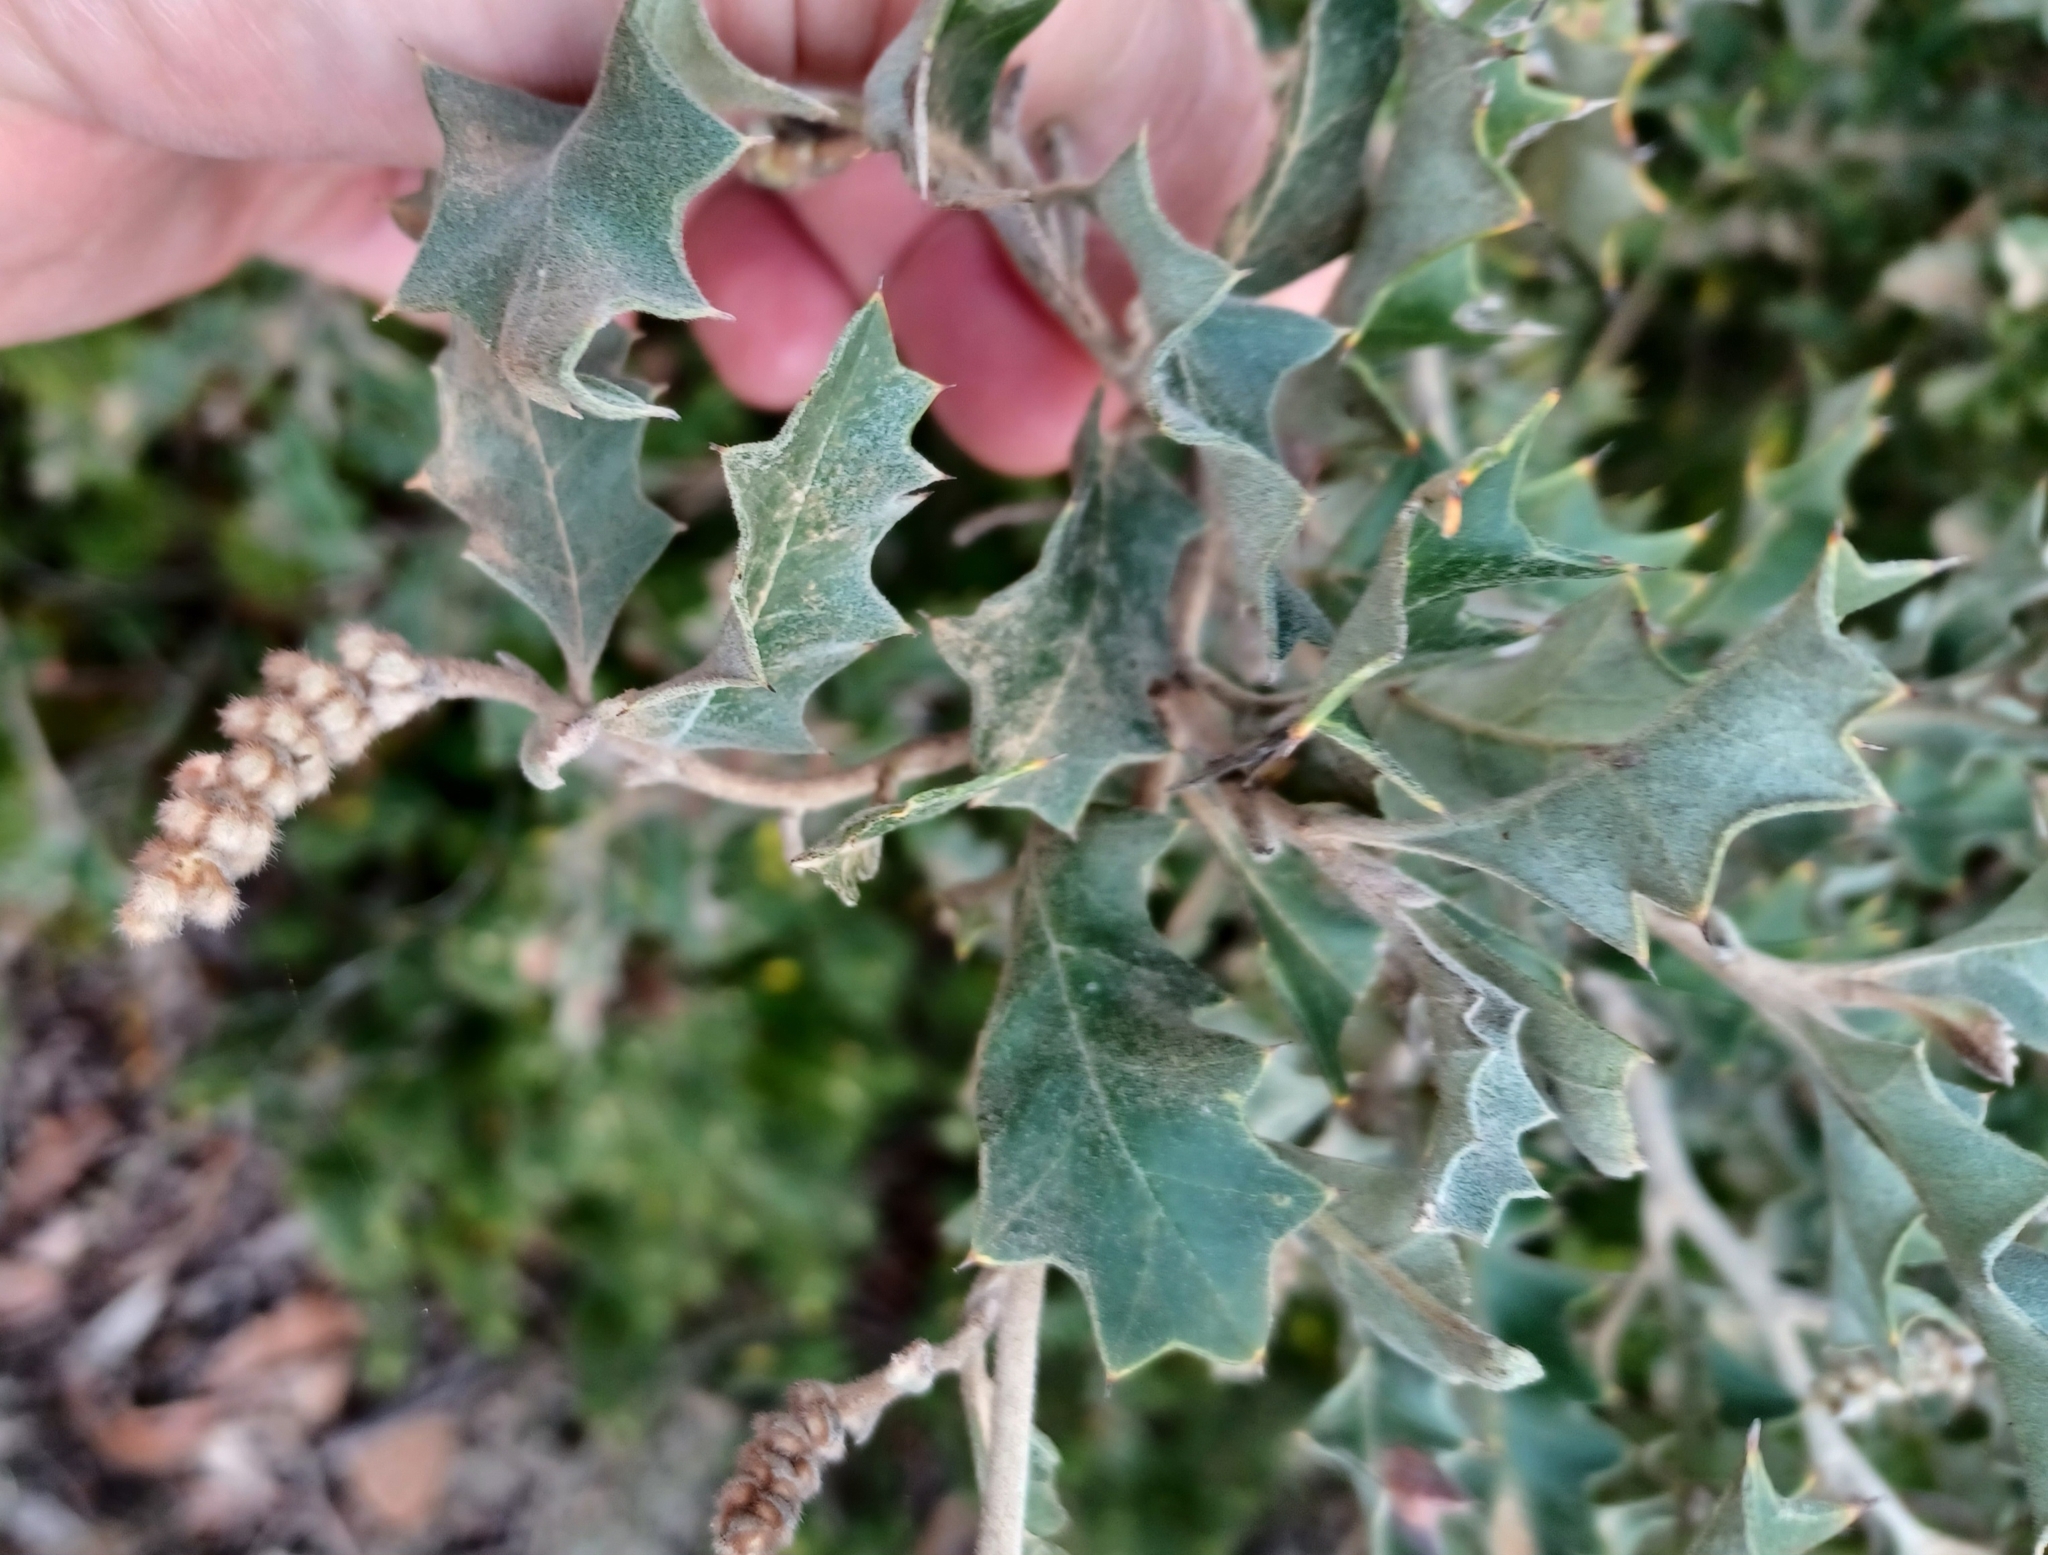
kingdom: Plantae
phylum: Tracheophyta
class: Magnoliopsida
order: Proteales
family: Proteaceae
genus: Grevillea
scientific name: Grevillea aquifolium
